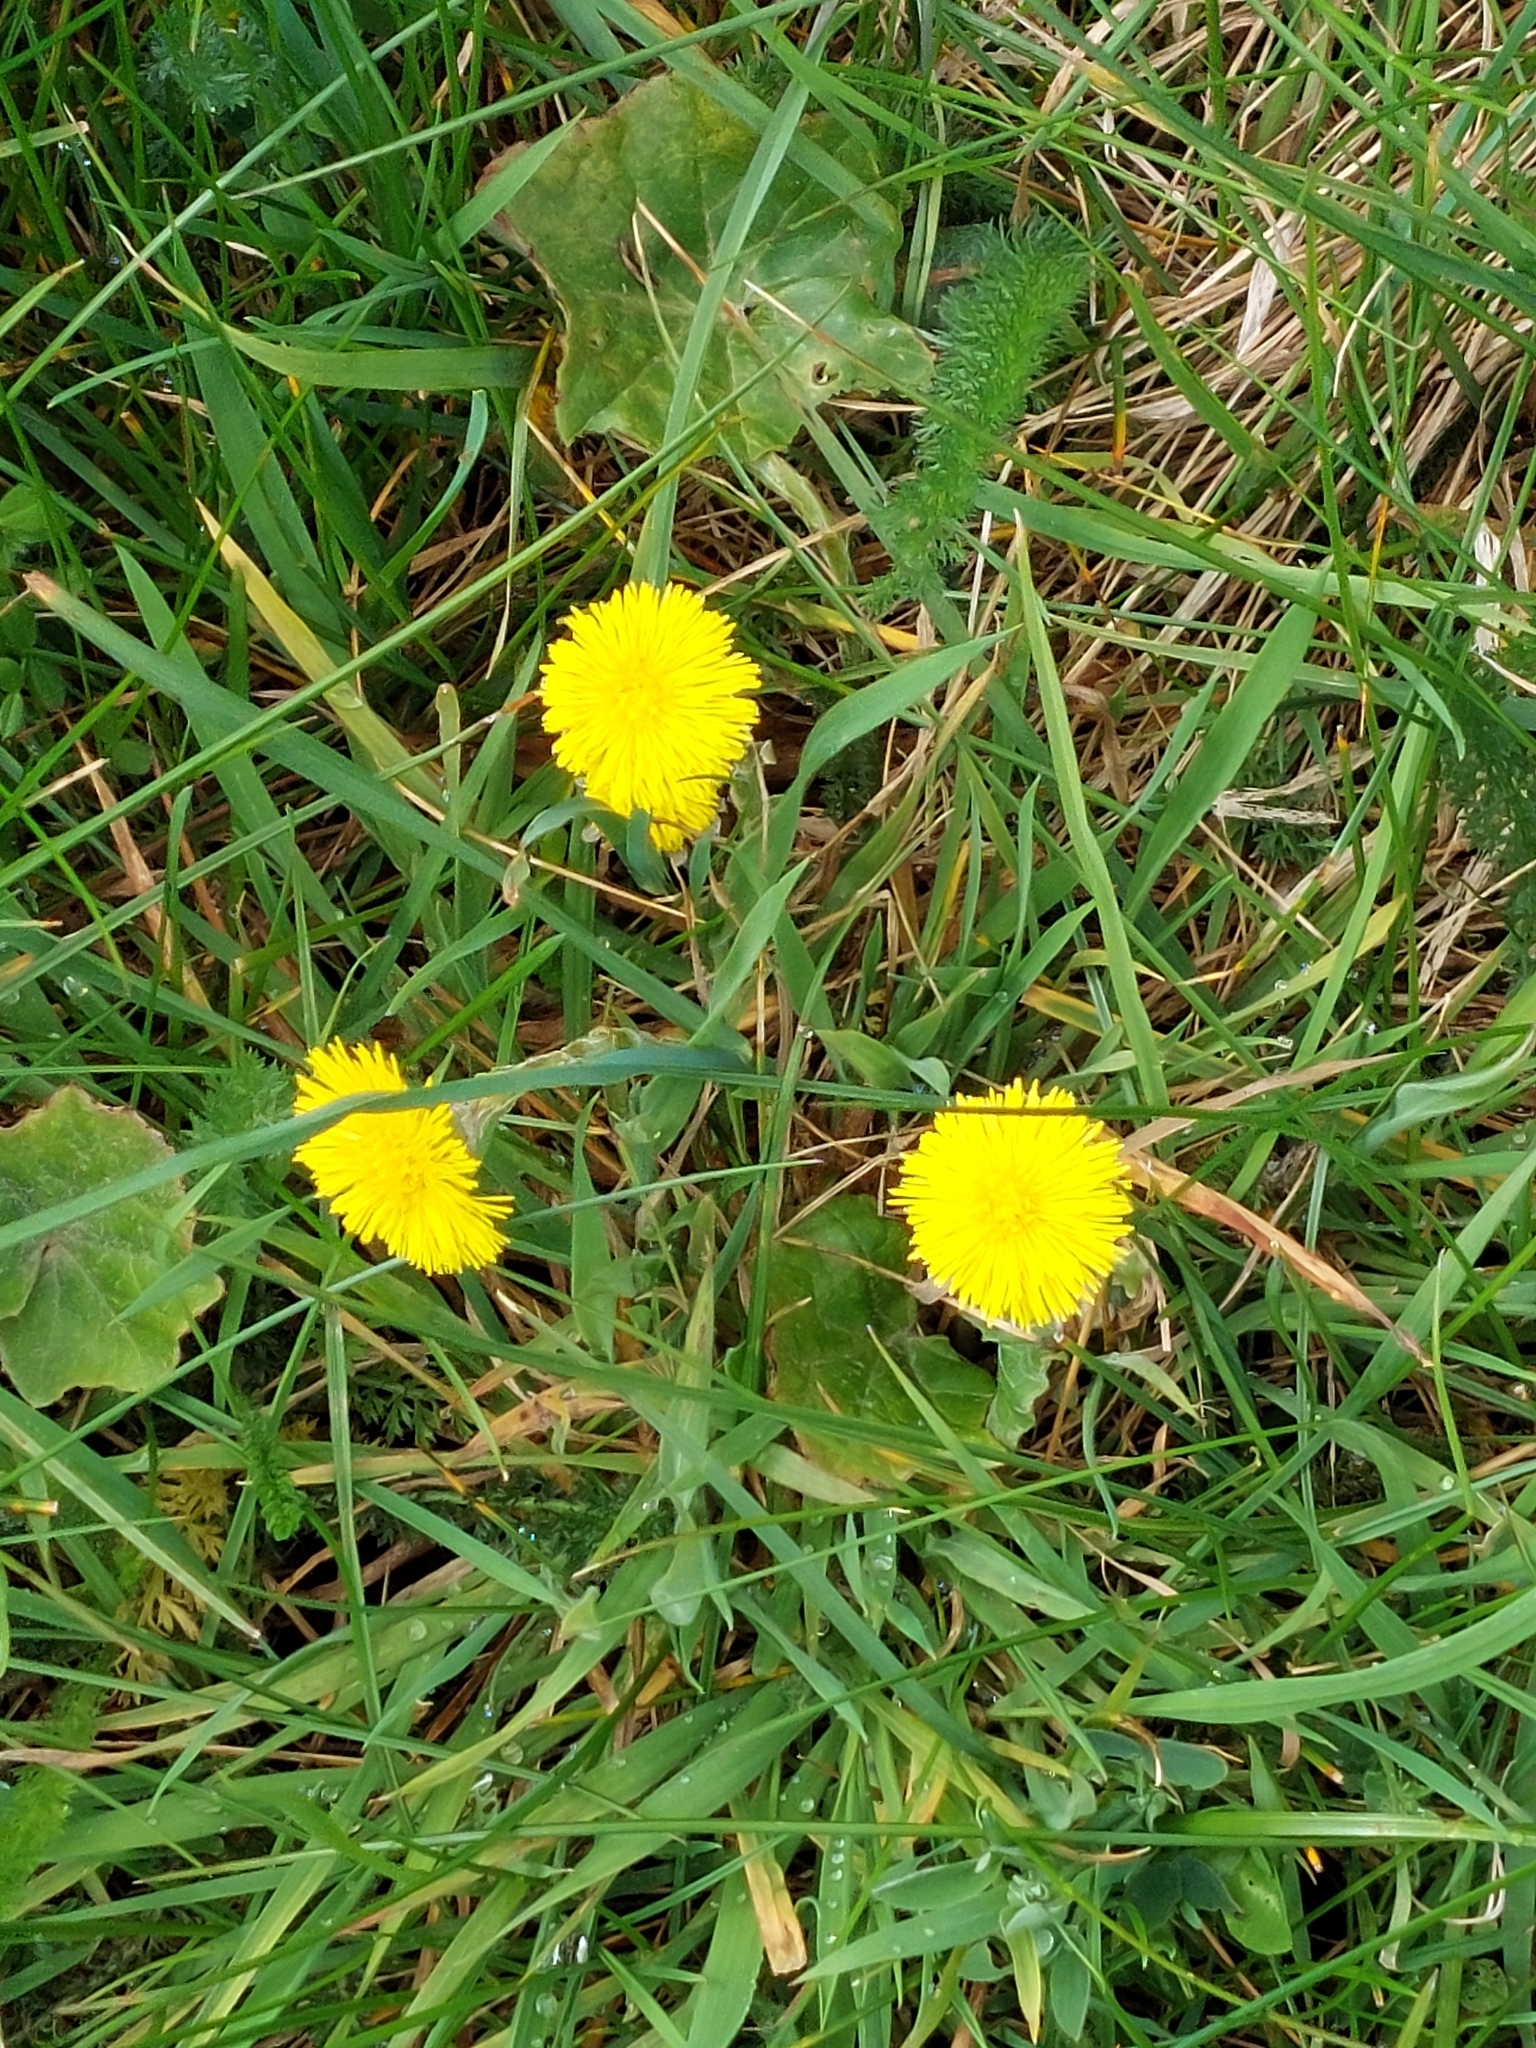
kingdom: Plantae
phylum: Tracheophyta
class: Magnoliopsida
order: Asterales
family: Asteraceae
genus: Tussilago
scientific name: Tussilago farfara
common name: Coltsfoot
